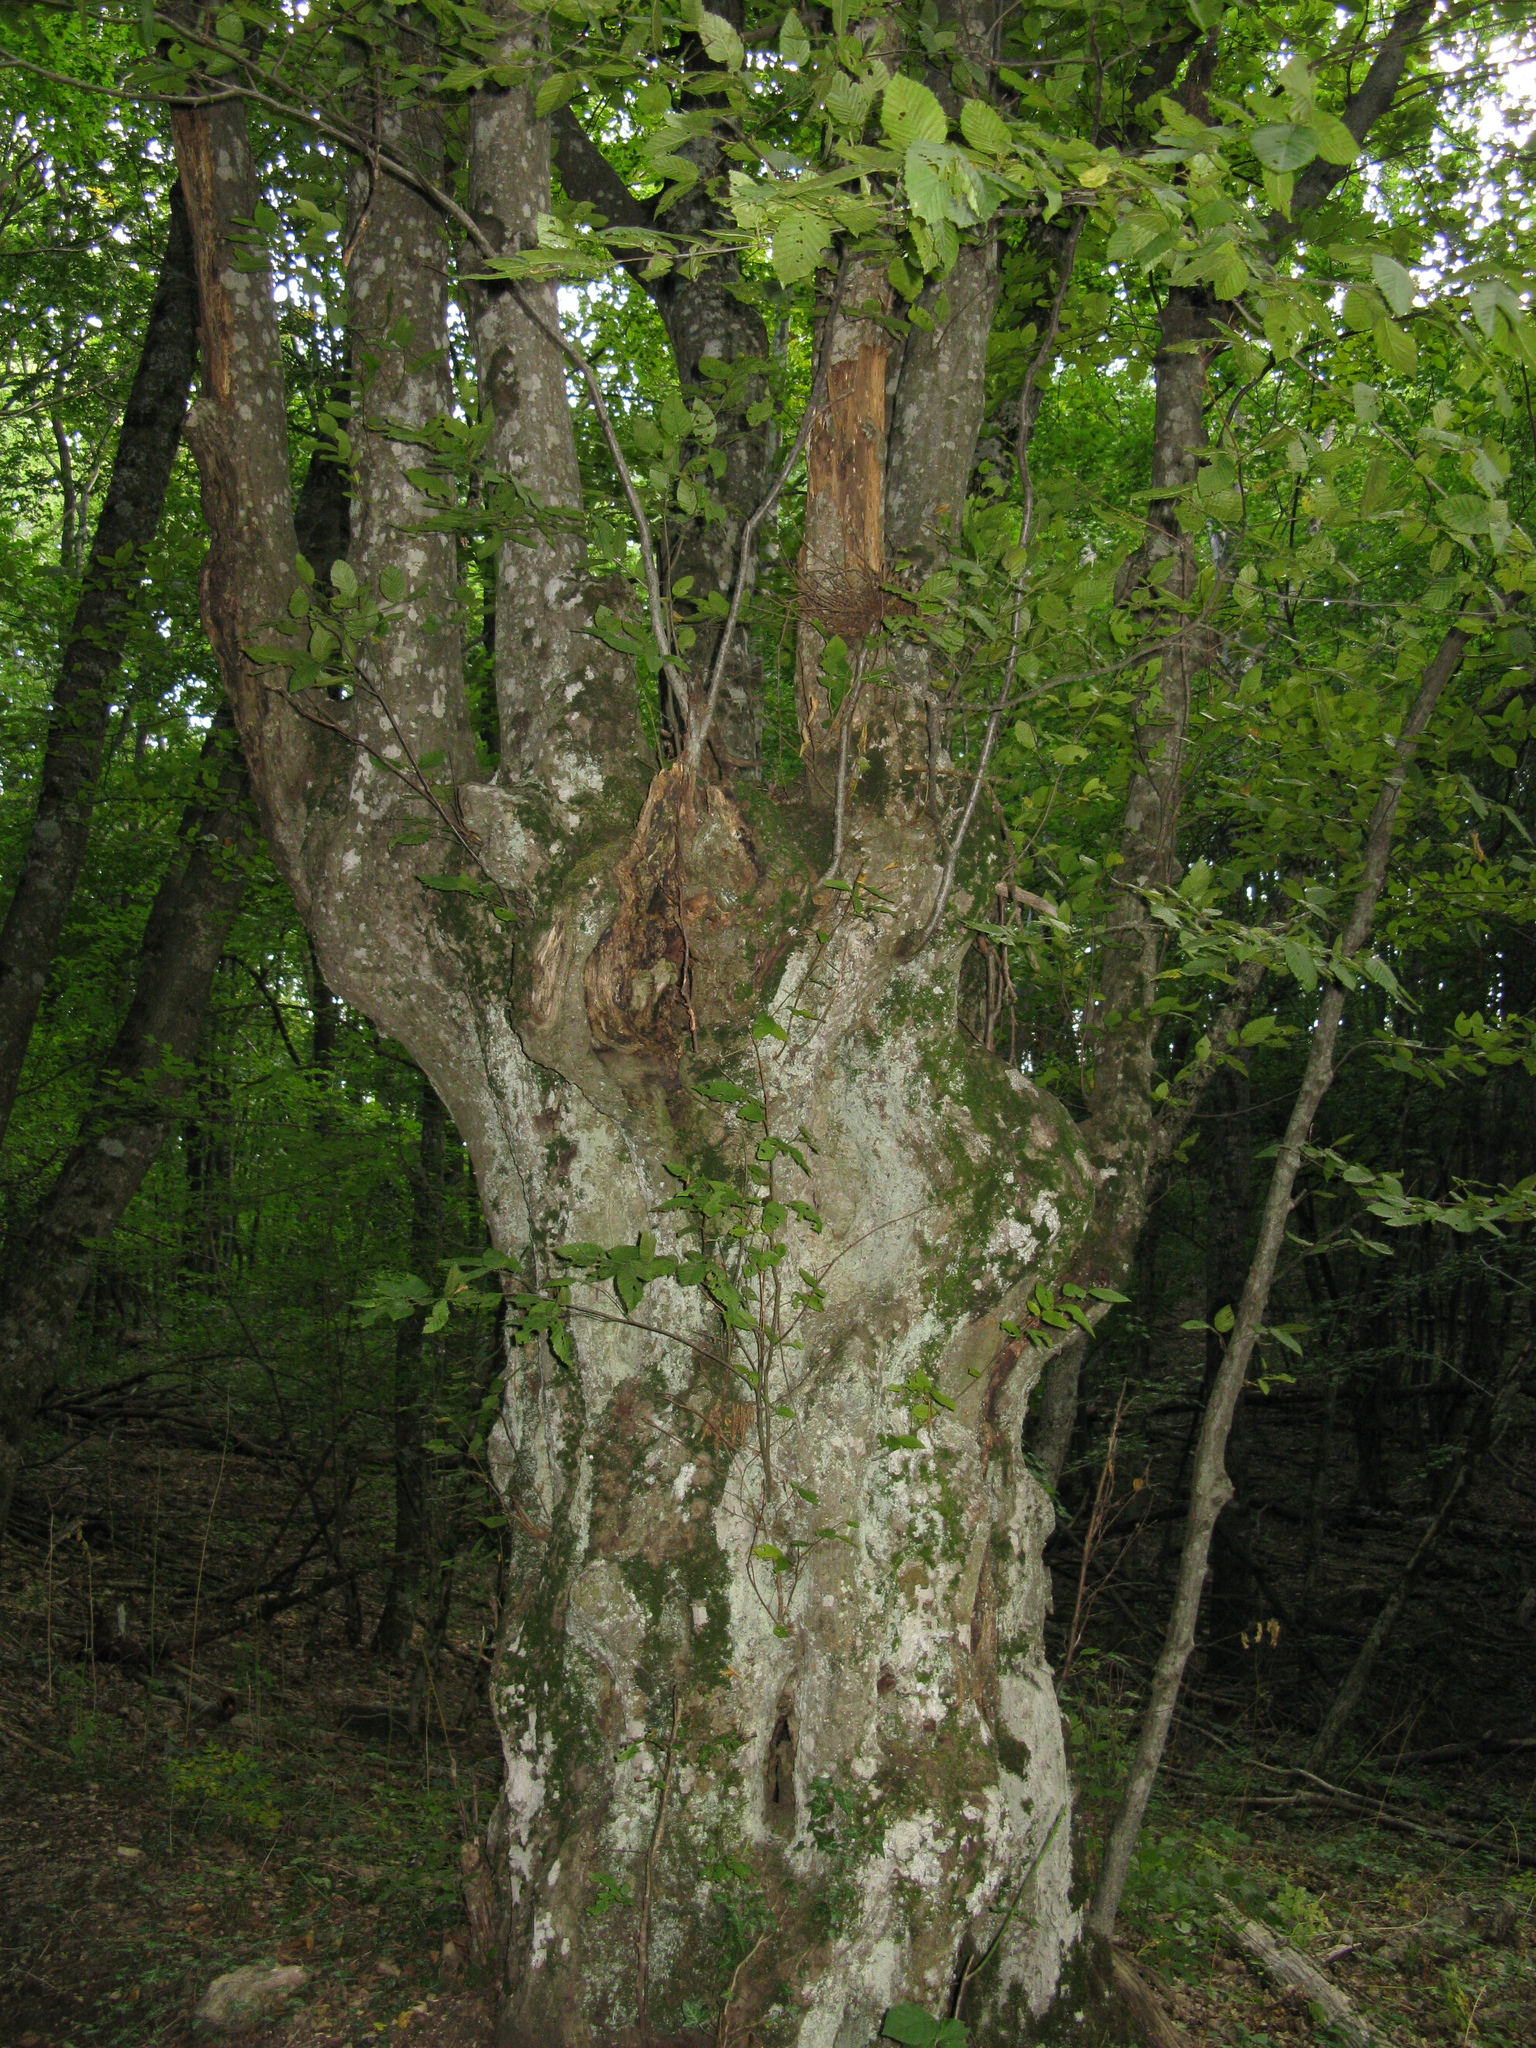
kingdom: Plantae
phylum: Tracheophyta
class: Magnoliopsida
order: Fagales
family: Fagaceae
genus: Fagus
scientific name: Fagus taurica
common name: Crimean beech
